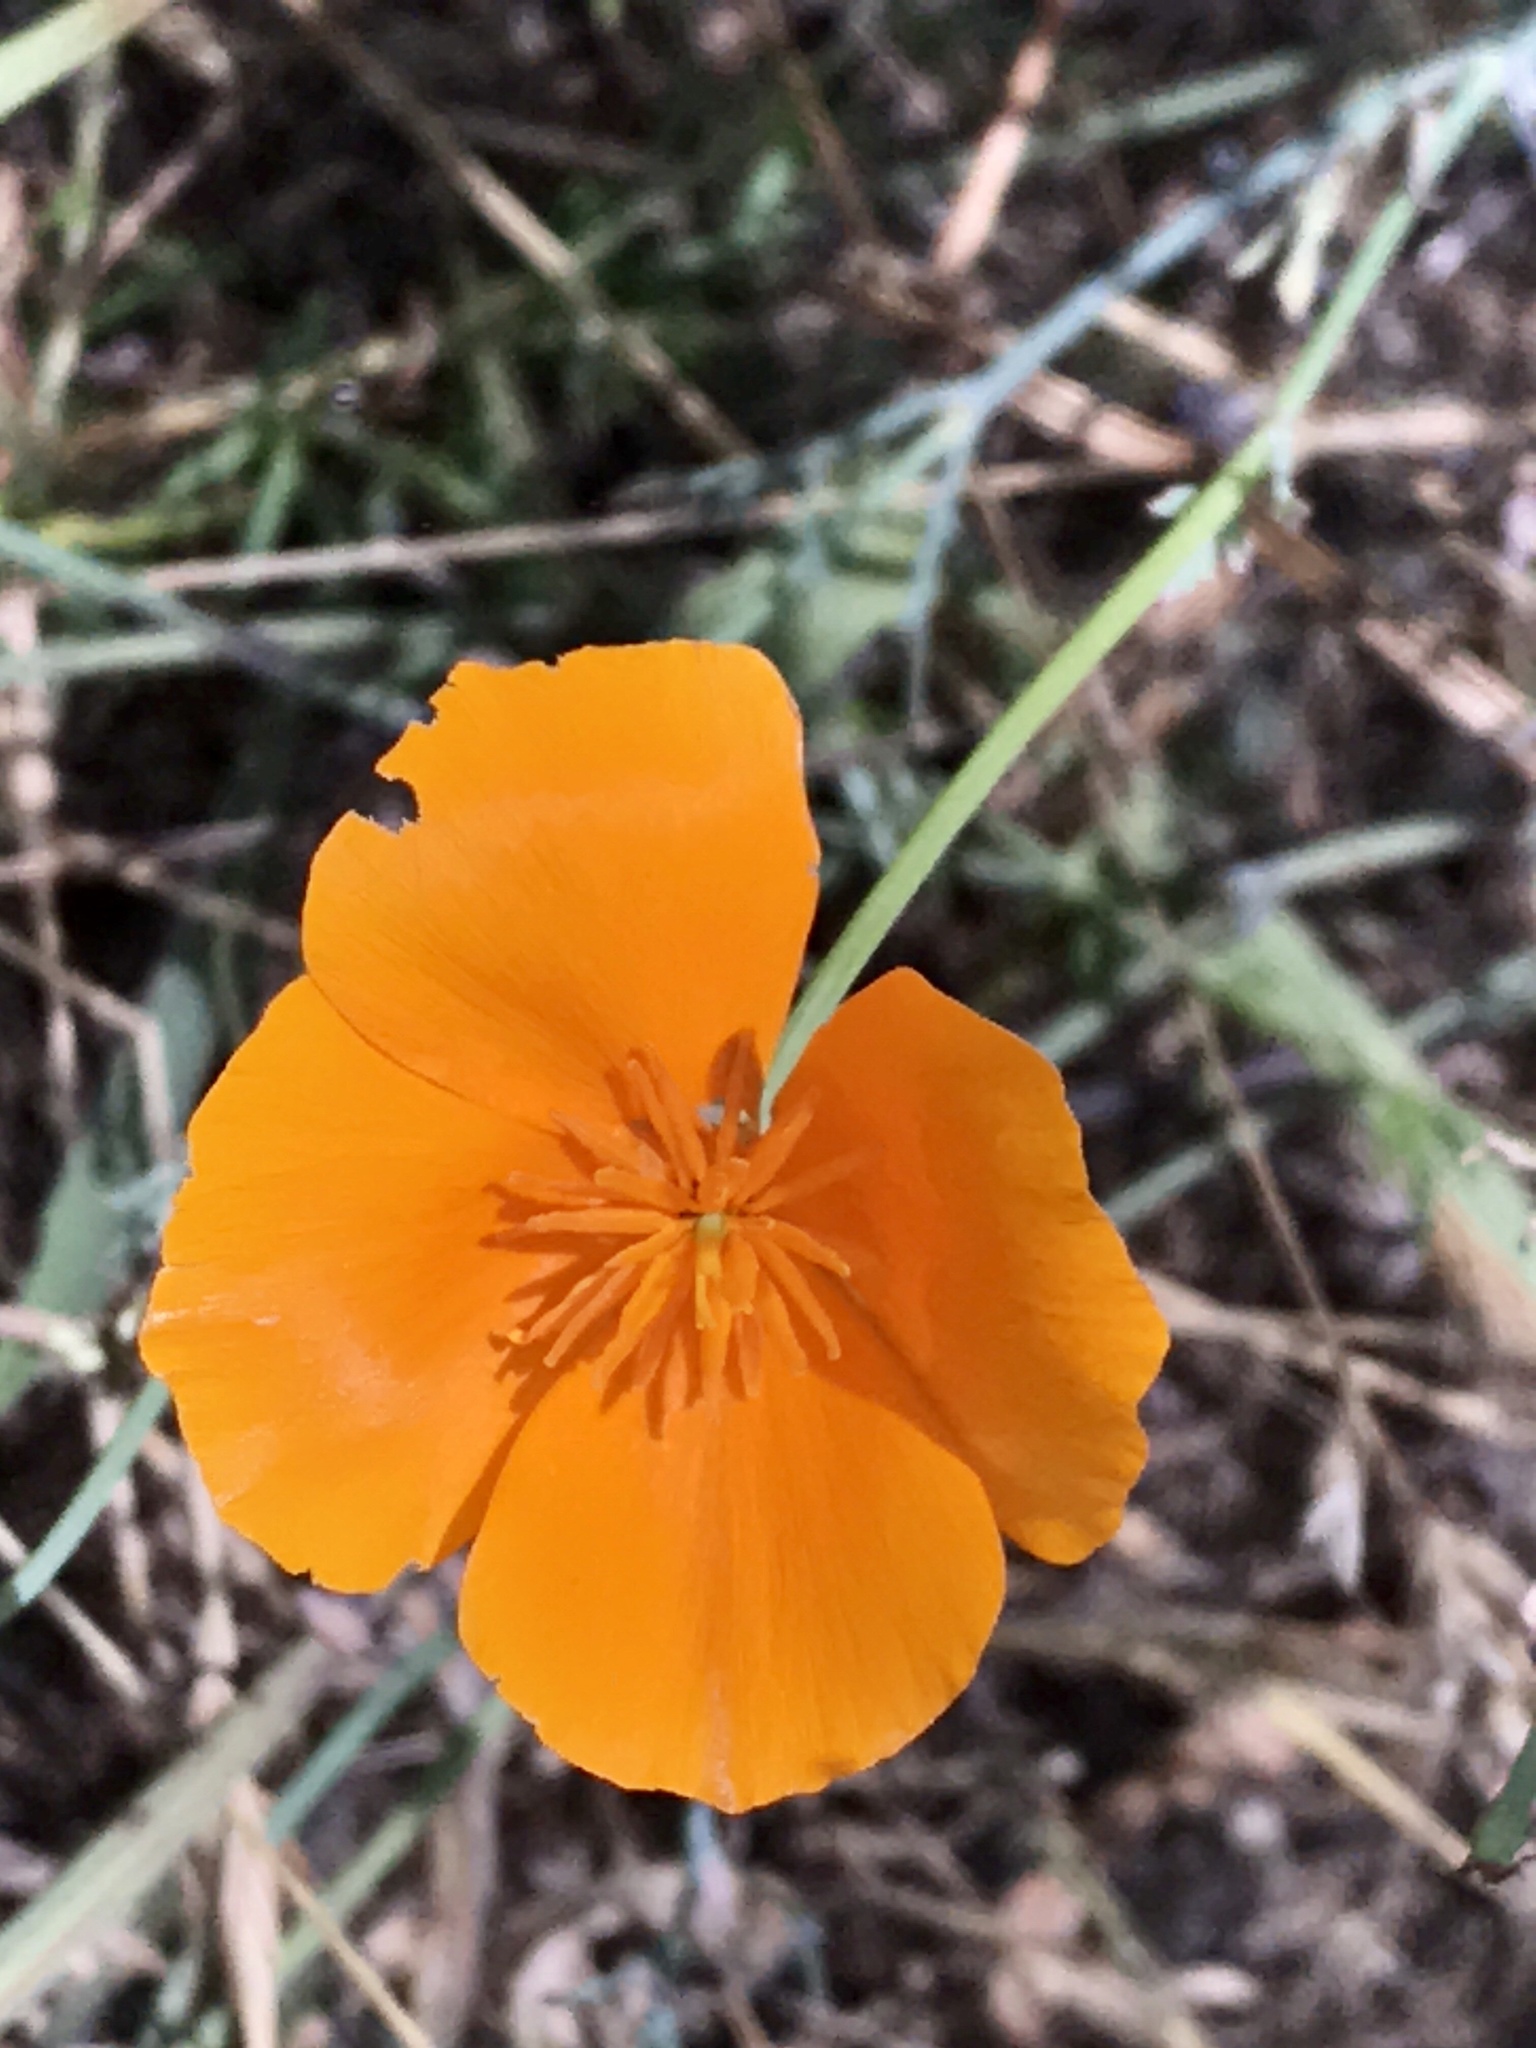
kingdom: Plantae
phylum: Tracheophyta
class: Magnoliopsida
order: Ranunculales
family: Papaveraceae
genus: Eschscholzia
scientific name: Eschscholzia californica
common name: California poppy
